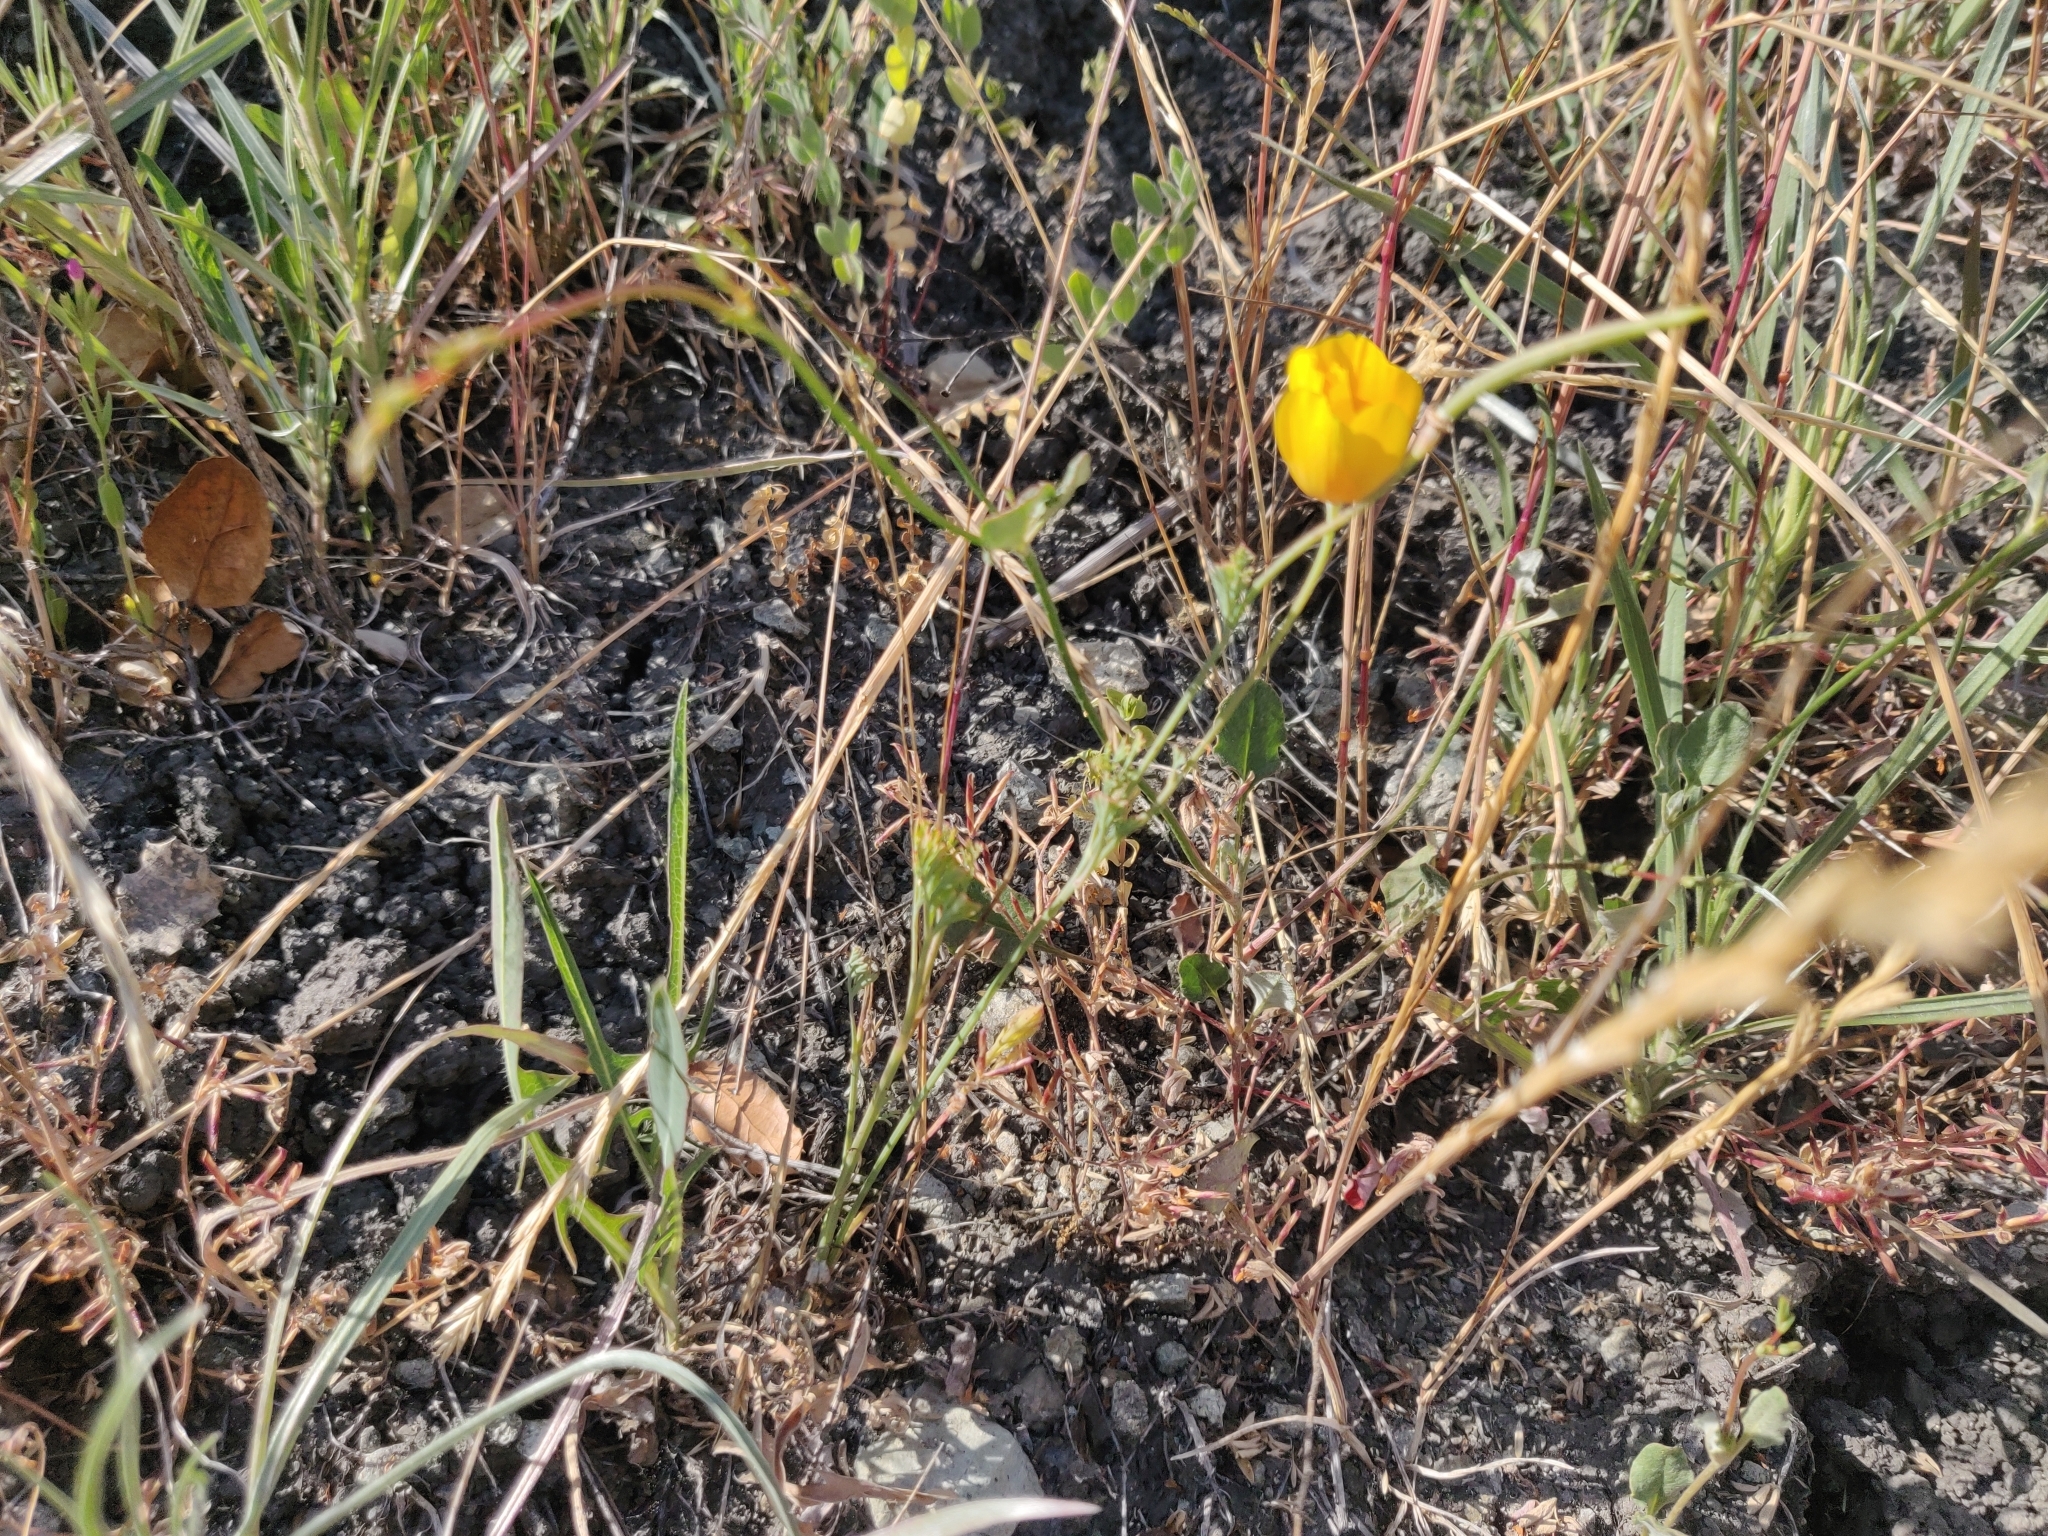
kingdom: Plantae
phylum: Tracheophyta
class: Magnoliopsida
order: Ranunculales
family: Papaveraceae
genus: Eschscholzia
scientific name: Eschscholzia californica
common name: California poppy
